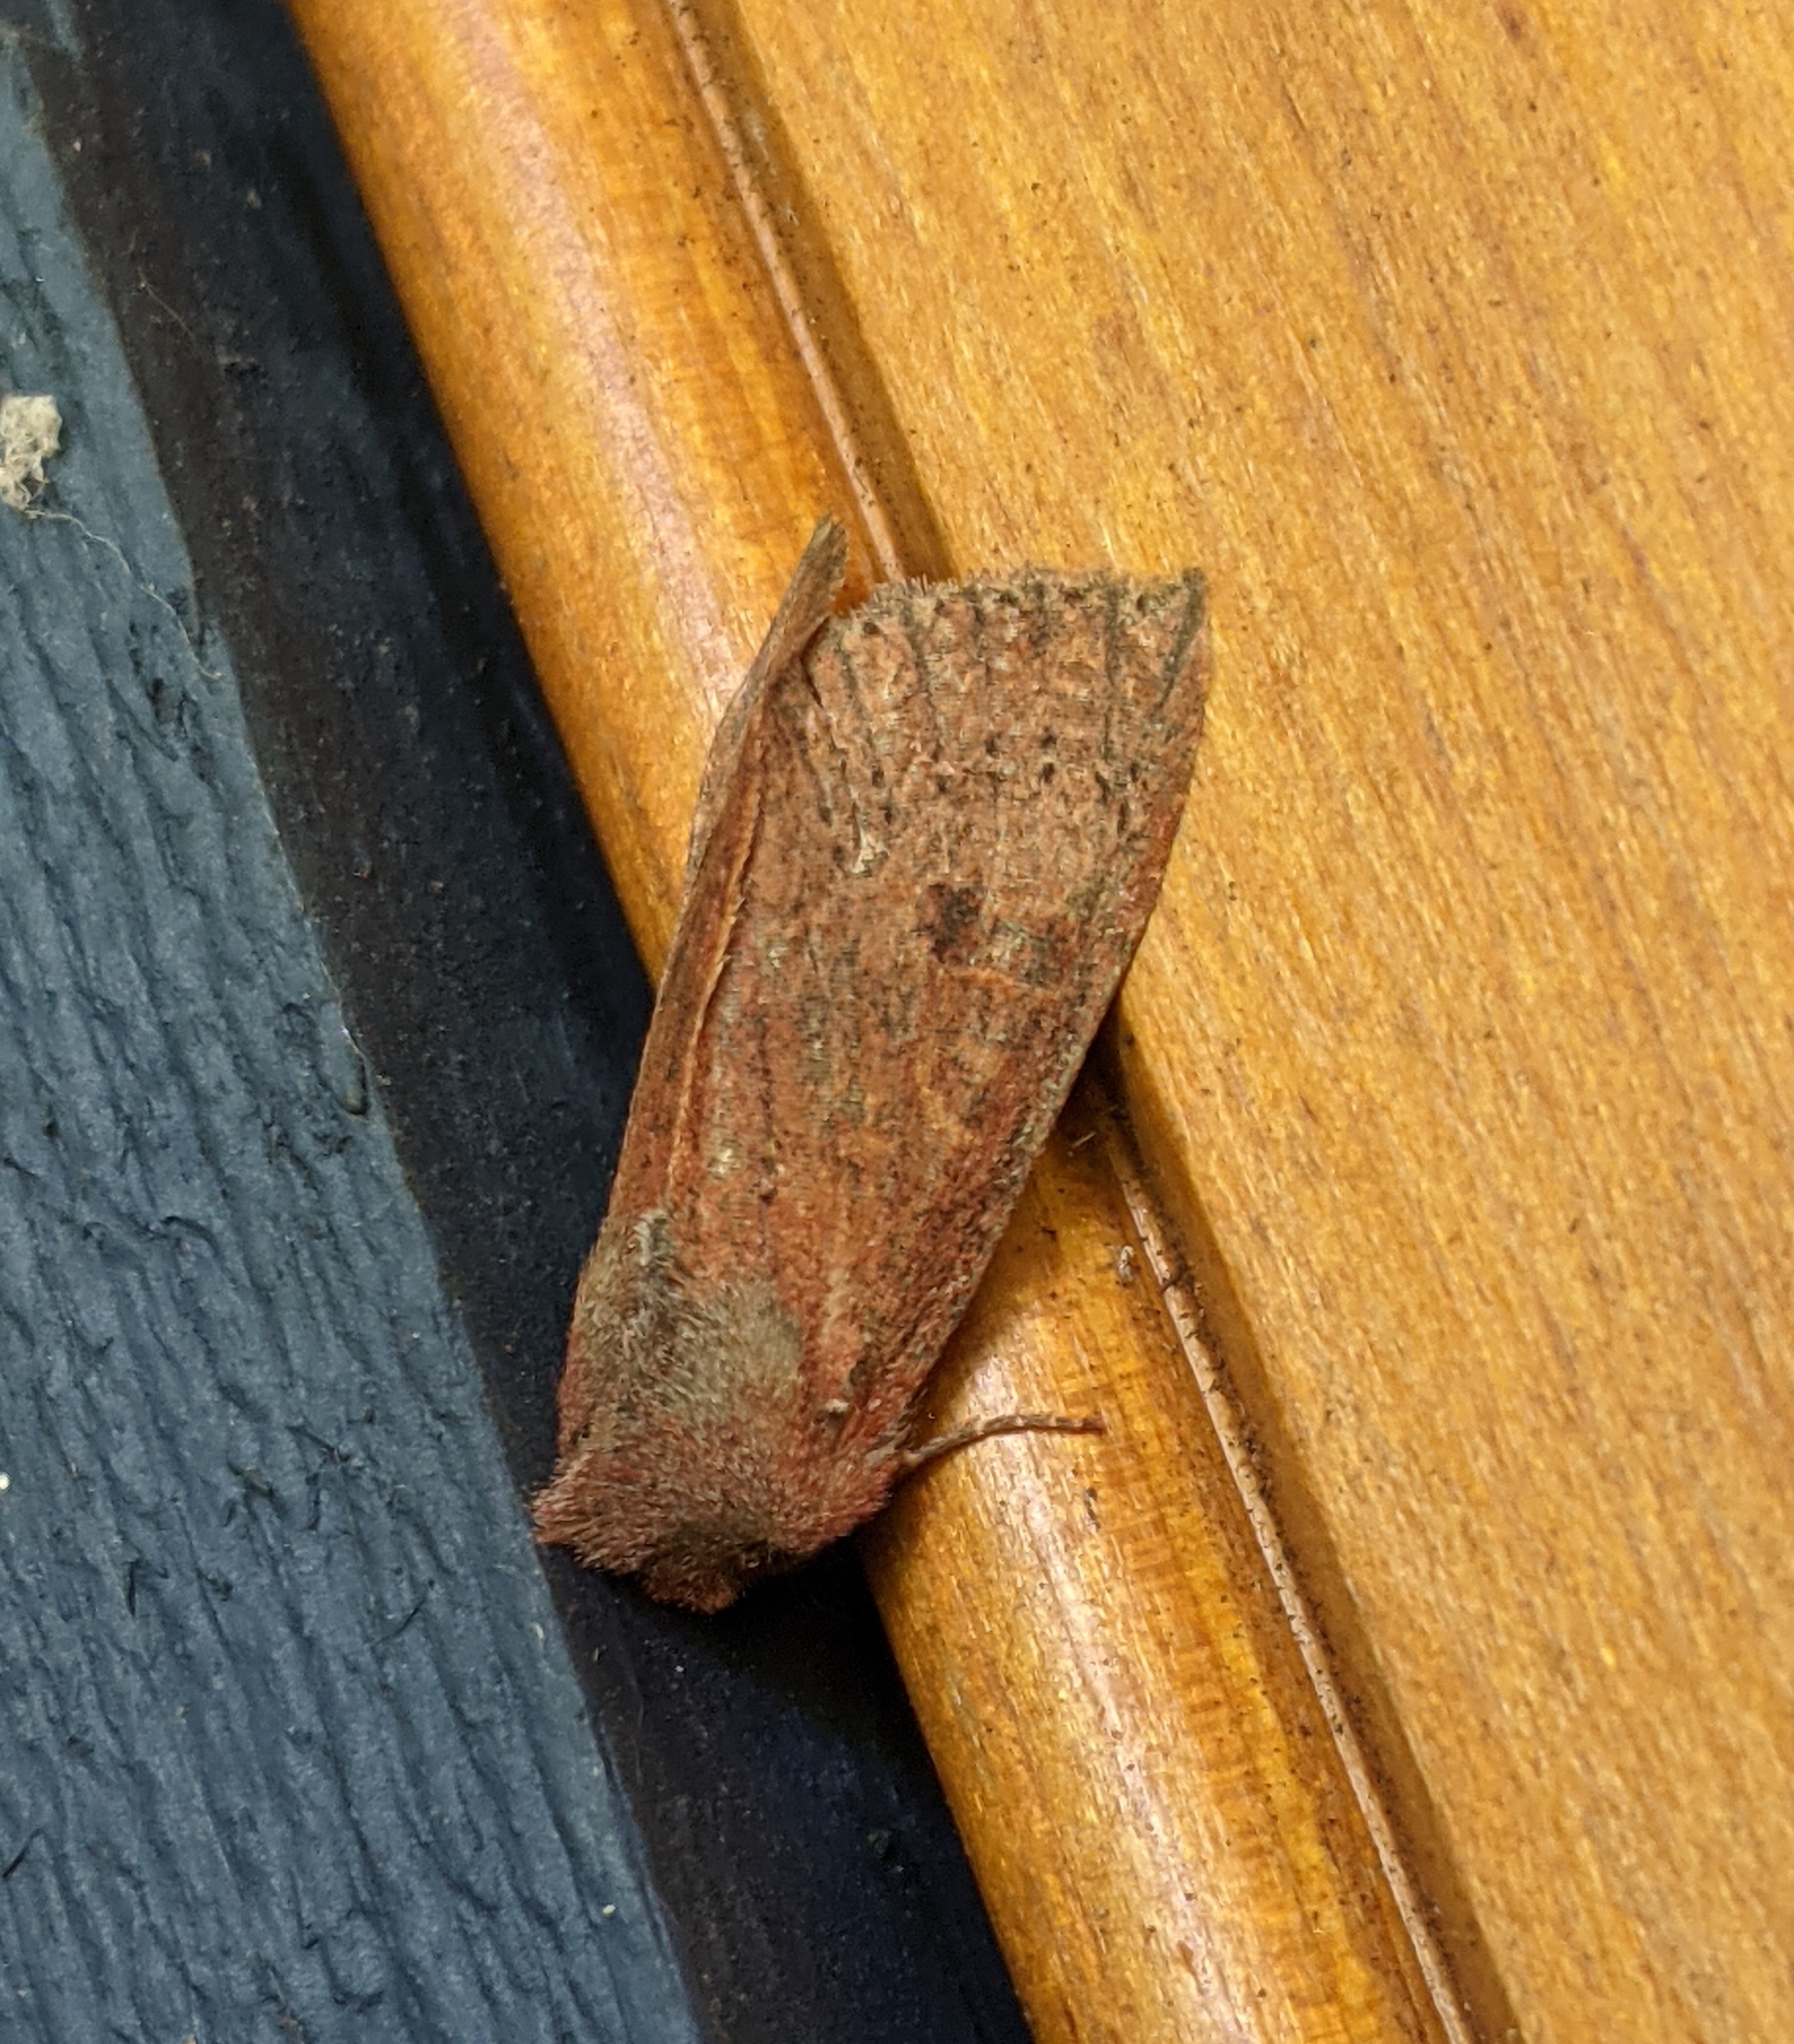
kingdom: Animalia
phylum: Arthropoda
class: Insecta
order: Lepidoptera
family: Noctuidae
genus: Orthosia
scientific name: Orthosia transparens
